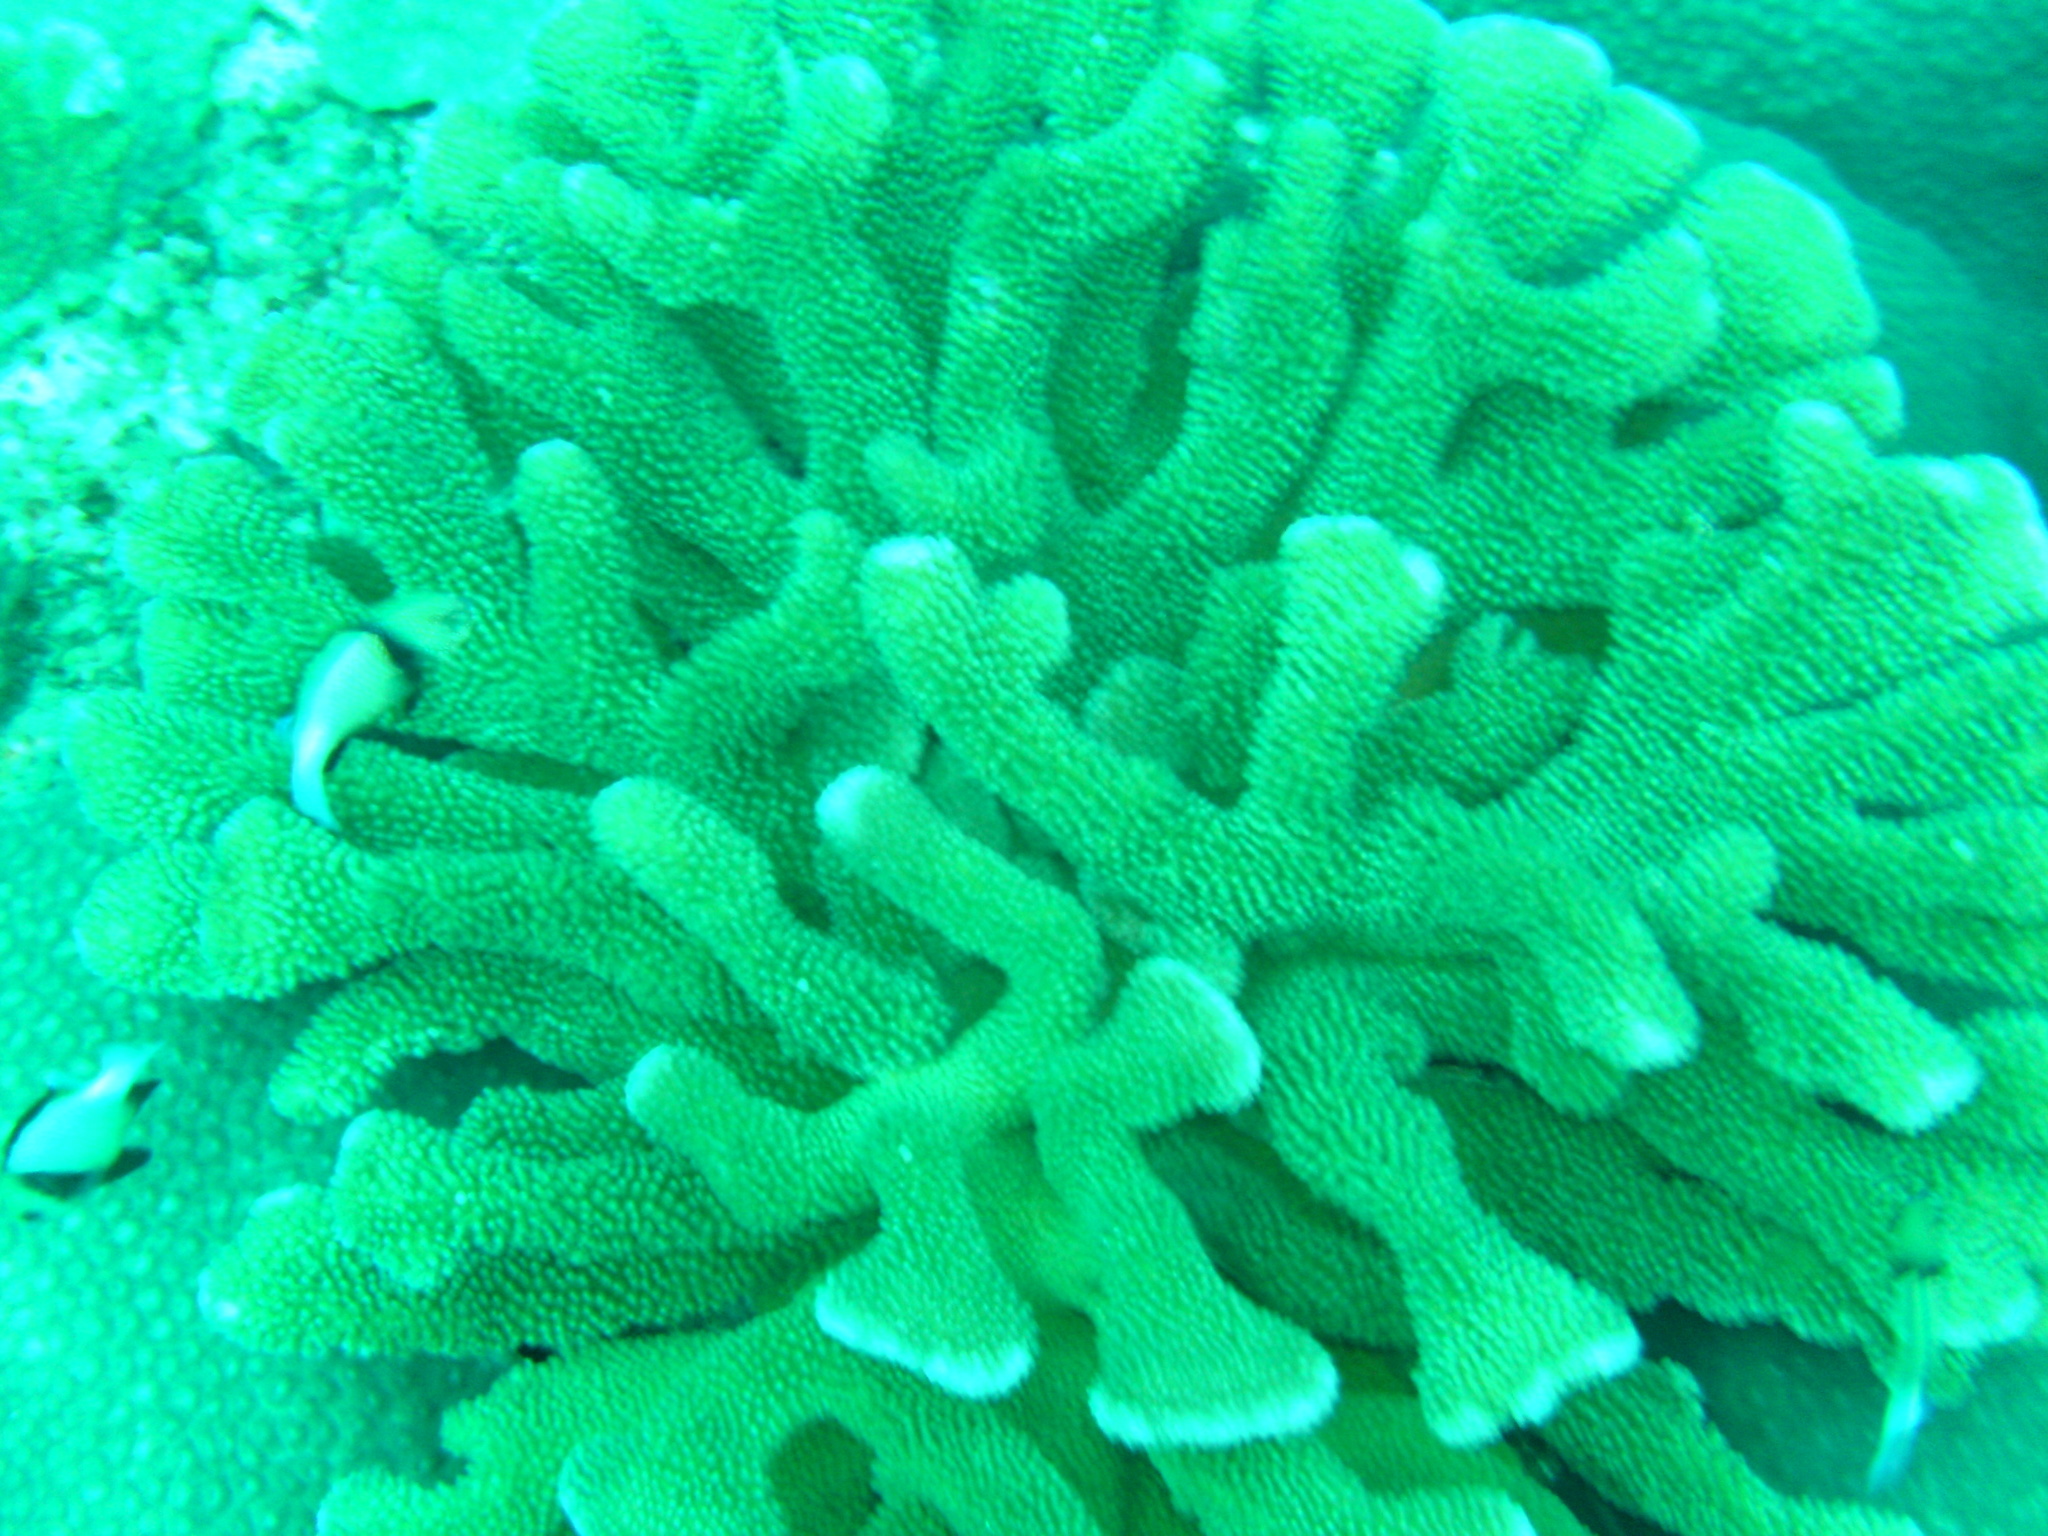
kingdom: Animalia
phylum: Cnidaria
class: Anthozoa
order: Scleractinia
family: Pocilloporidae
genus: Pocillopora
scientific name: Pocillopora grandis
